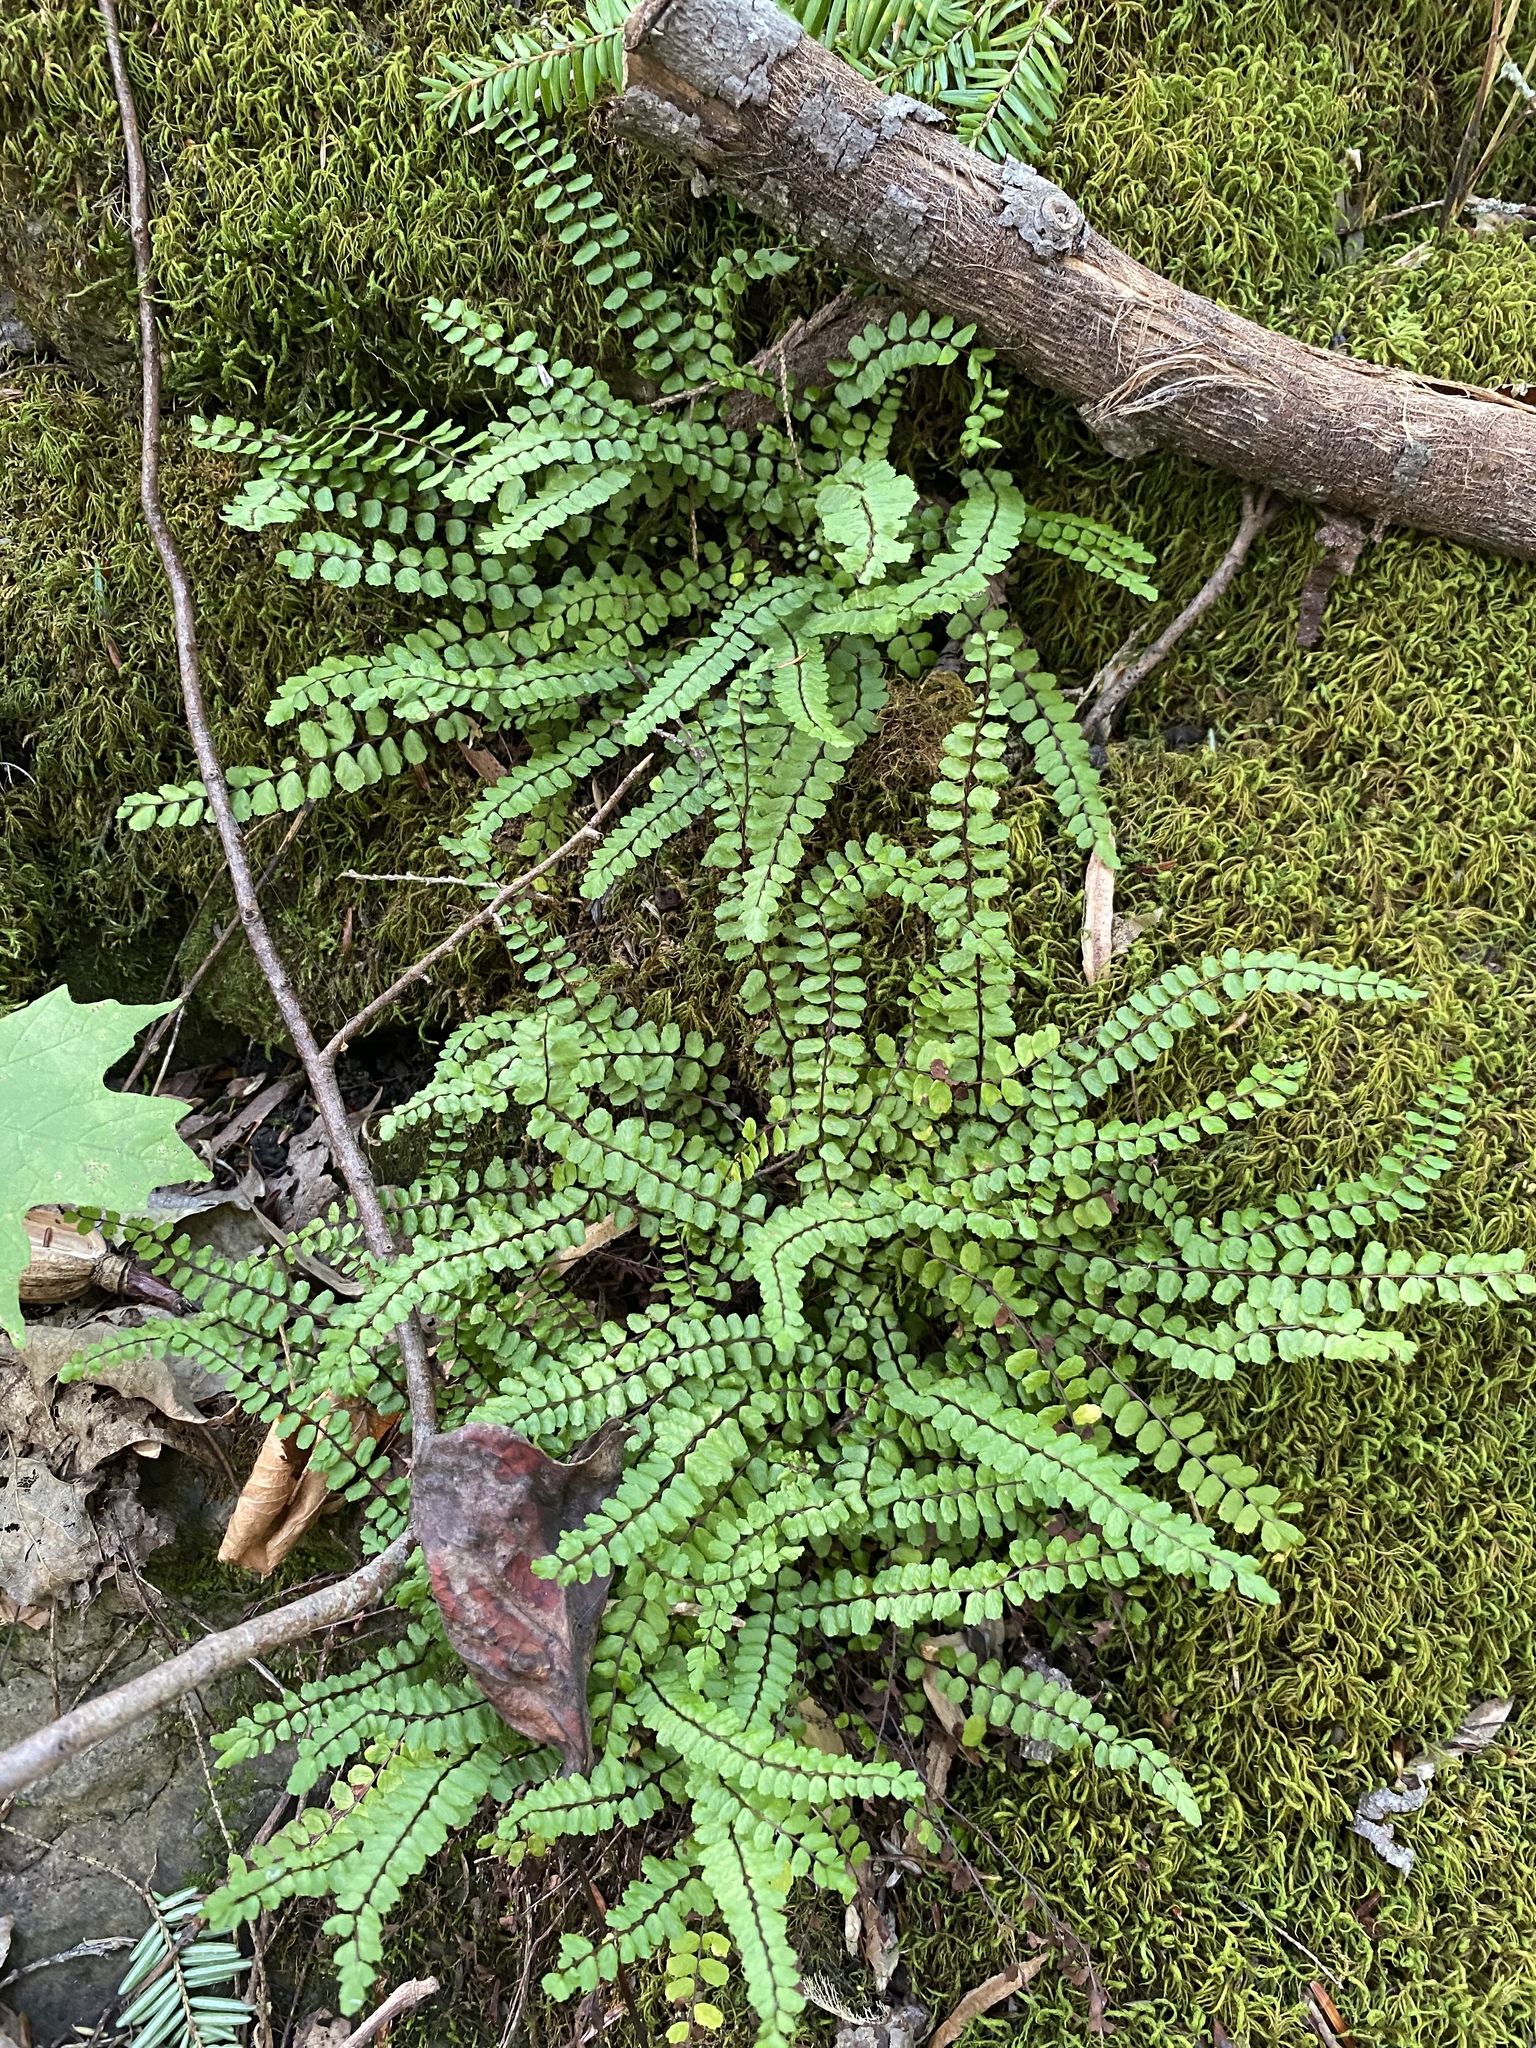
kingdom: Plantae
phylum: Tracheophyta
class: Polypodiopsida
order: Polypodiales
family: Aspleniaceae
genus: Asplenium
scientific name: Asplenium trichomanes
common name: Maidenhair spleenwort
